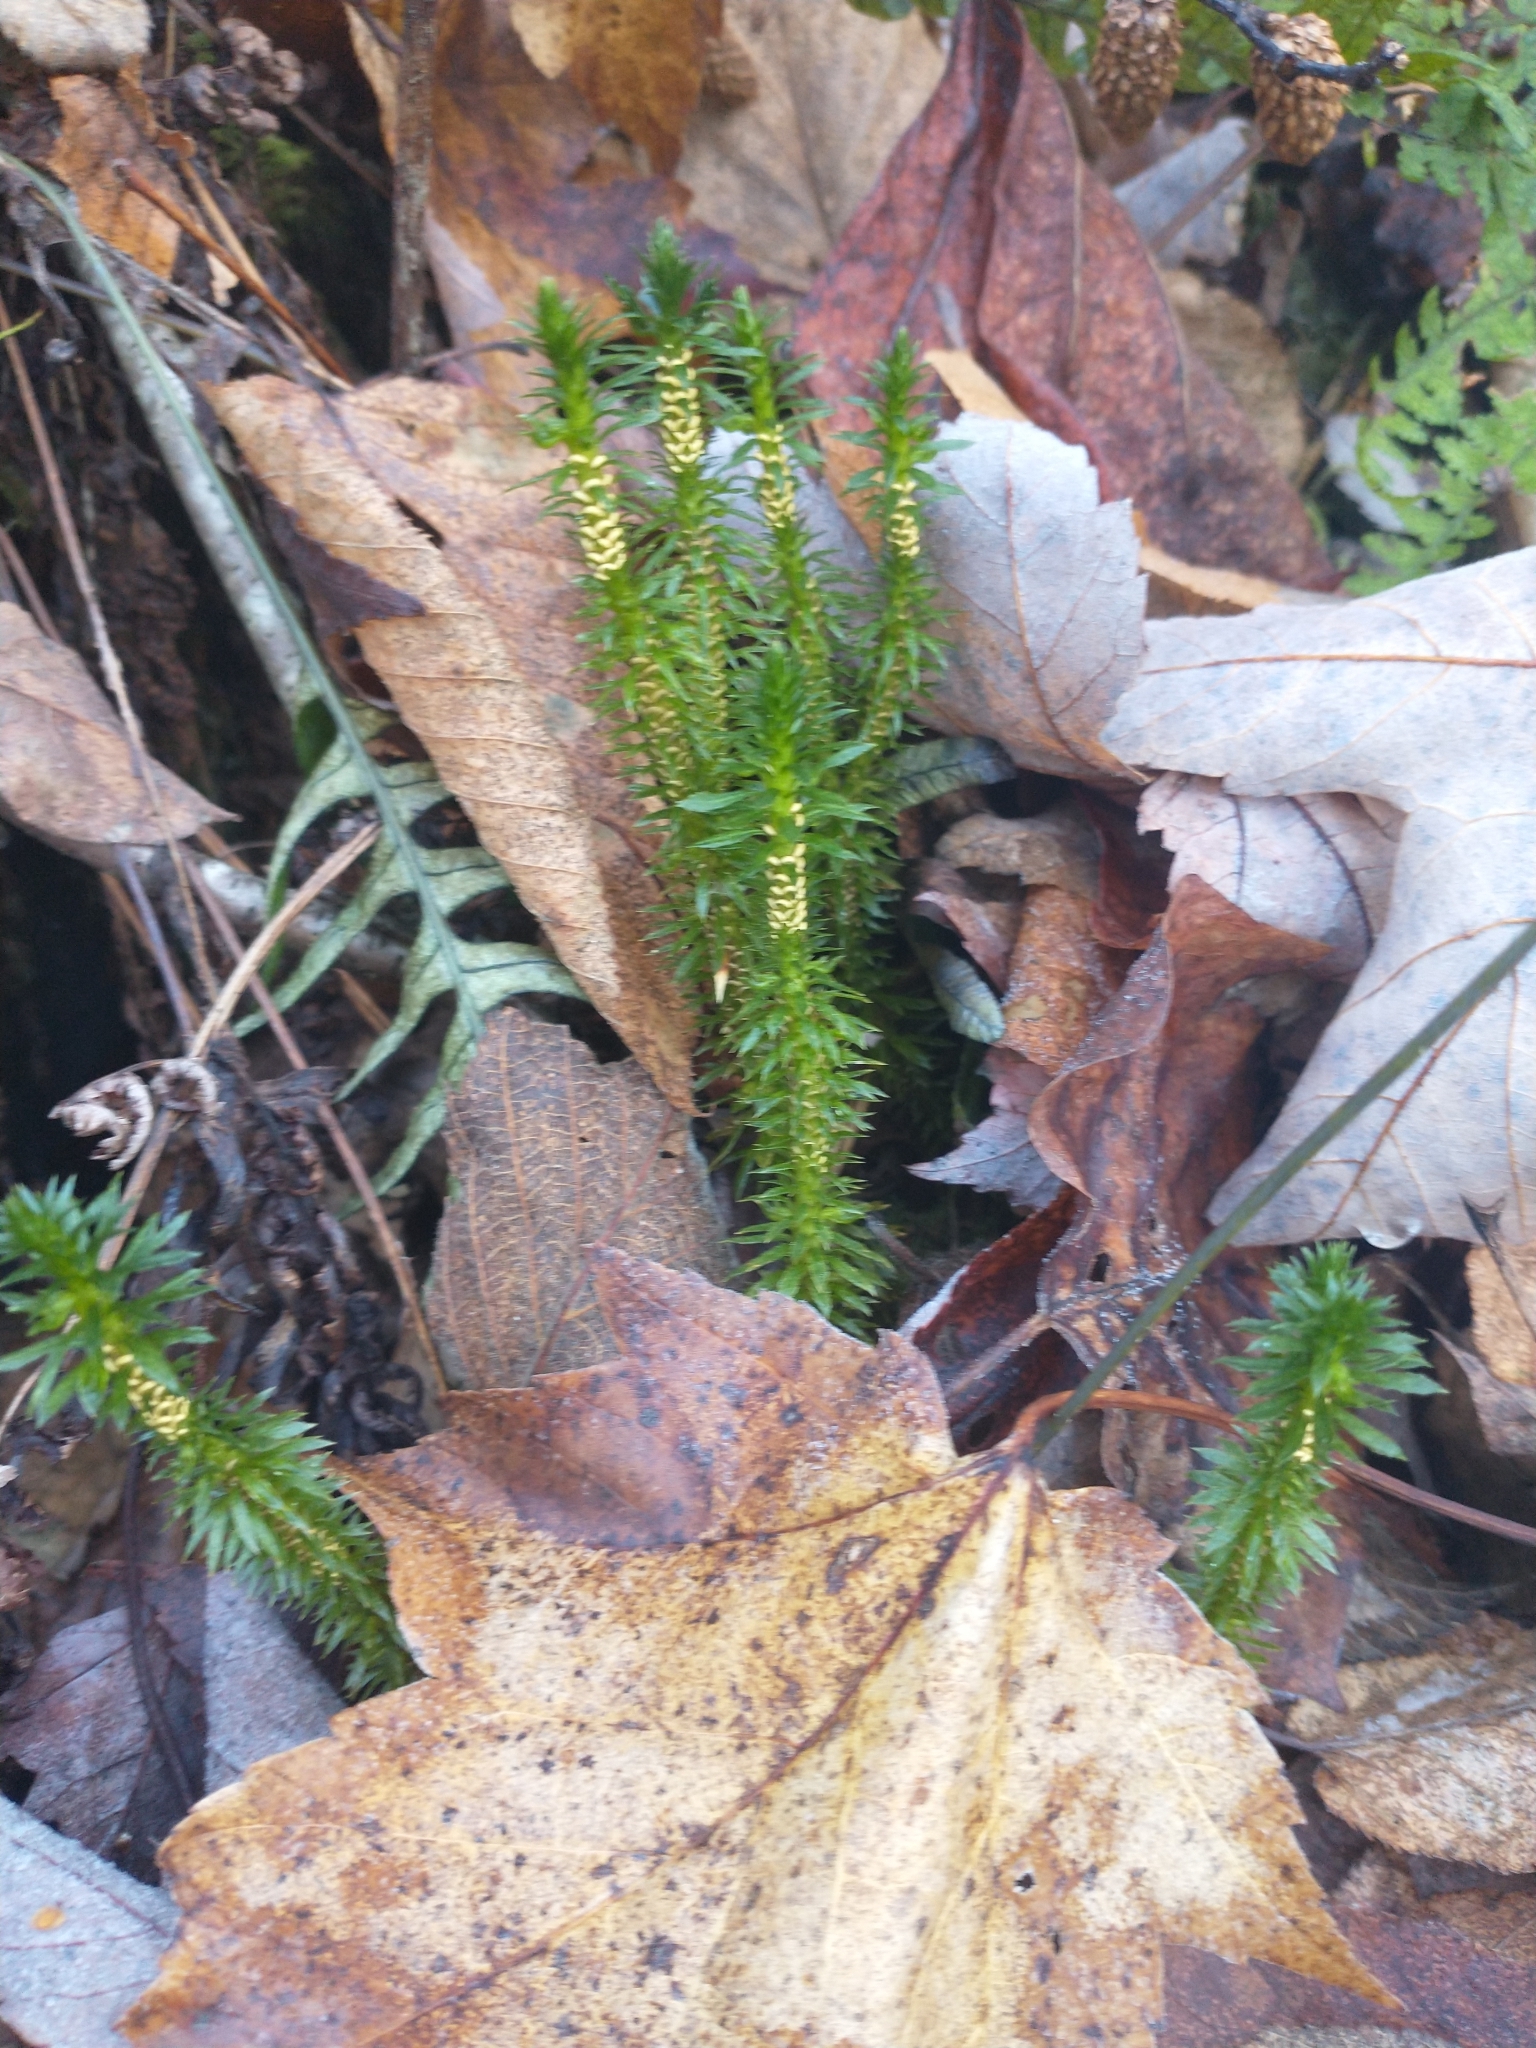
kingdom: Plantae
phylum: Tracheophyta
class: Lycopodiopsida
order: Lycopodiales
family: Lycopodiaceae
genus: Huperzia
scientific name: Huperzia lucidula
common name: Shining clubmoss
